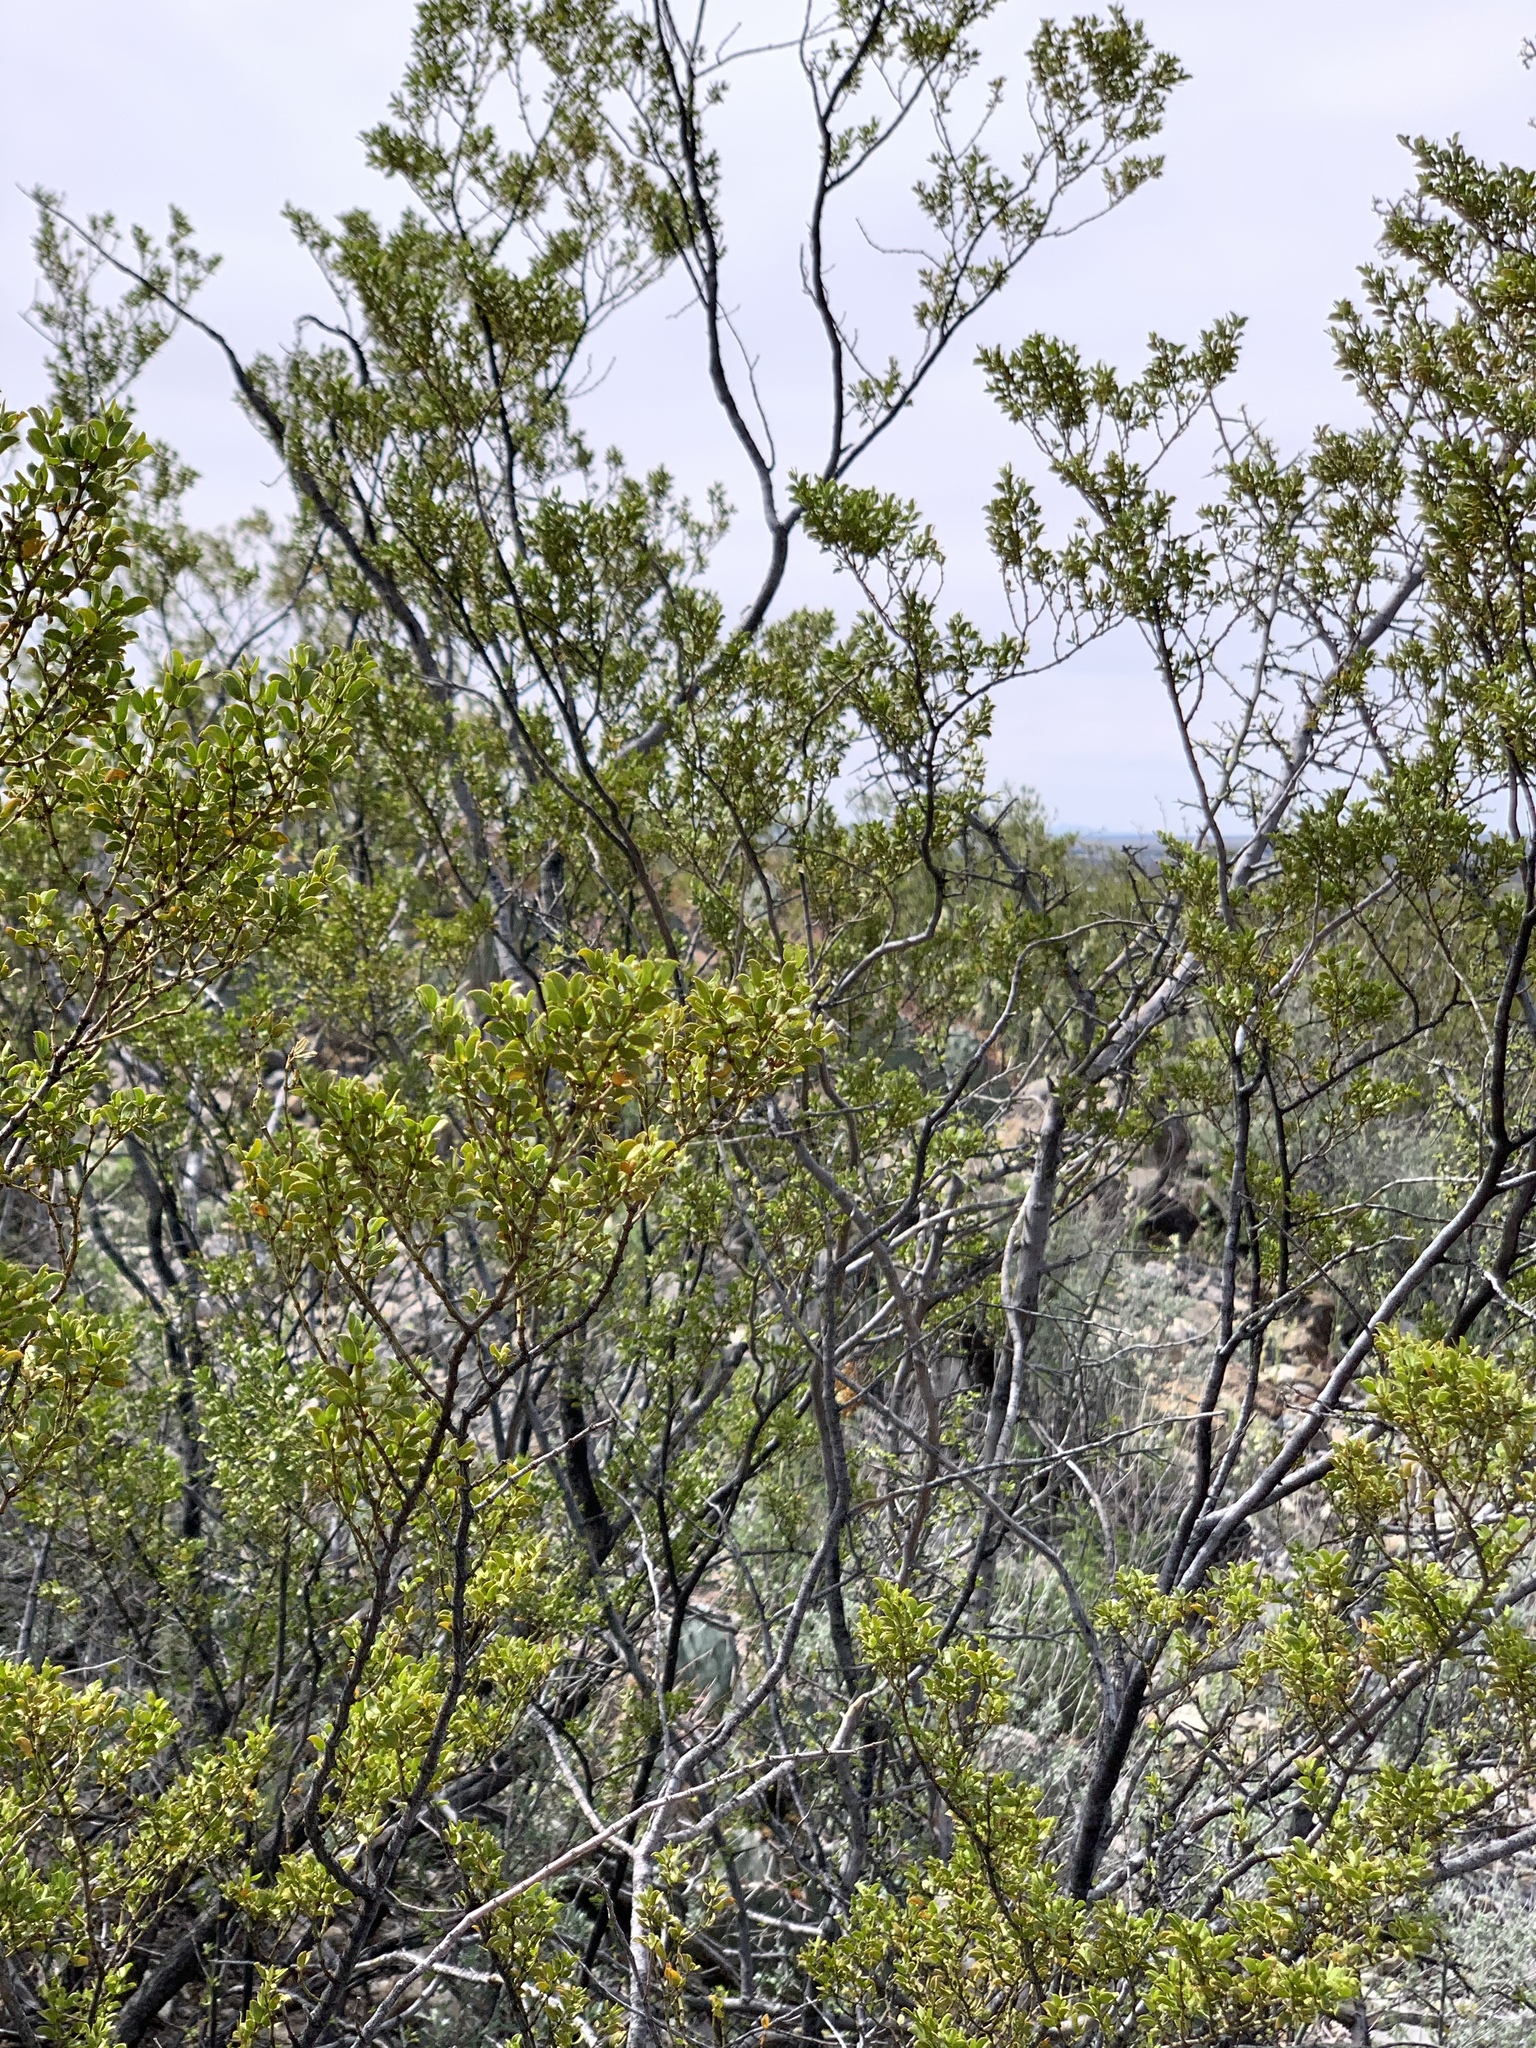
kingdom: Plantae
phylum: Tracheophyta
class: Magnoliopsida
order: Zygophyllales
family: Zygophyllaceae
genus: Larrea
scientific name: Larrea tridentata
